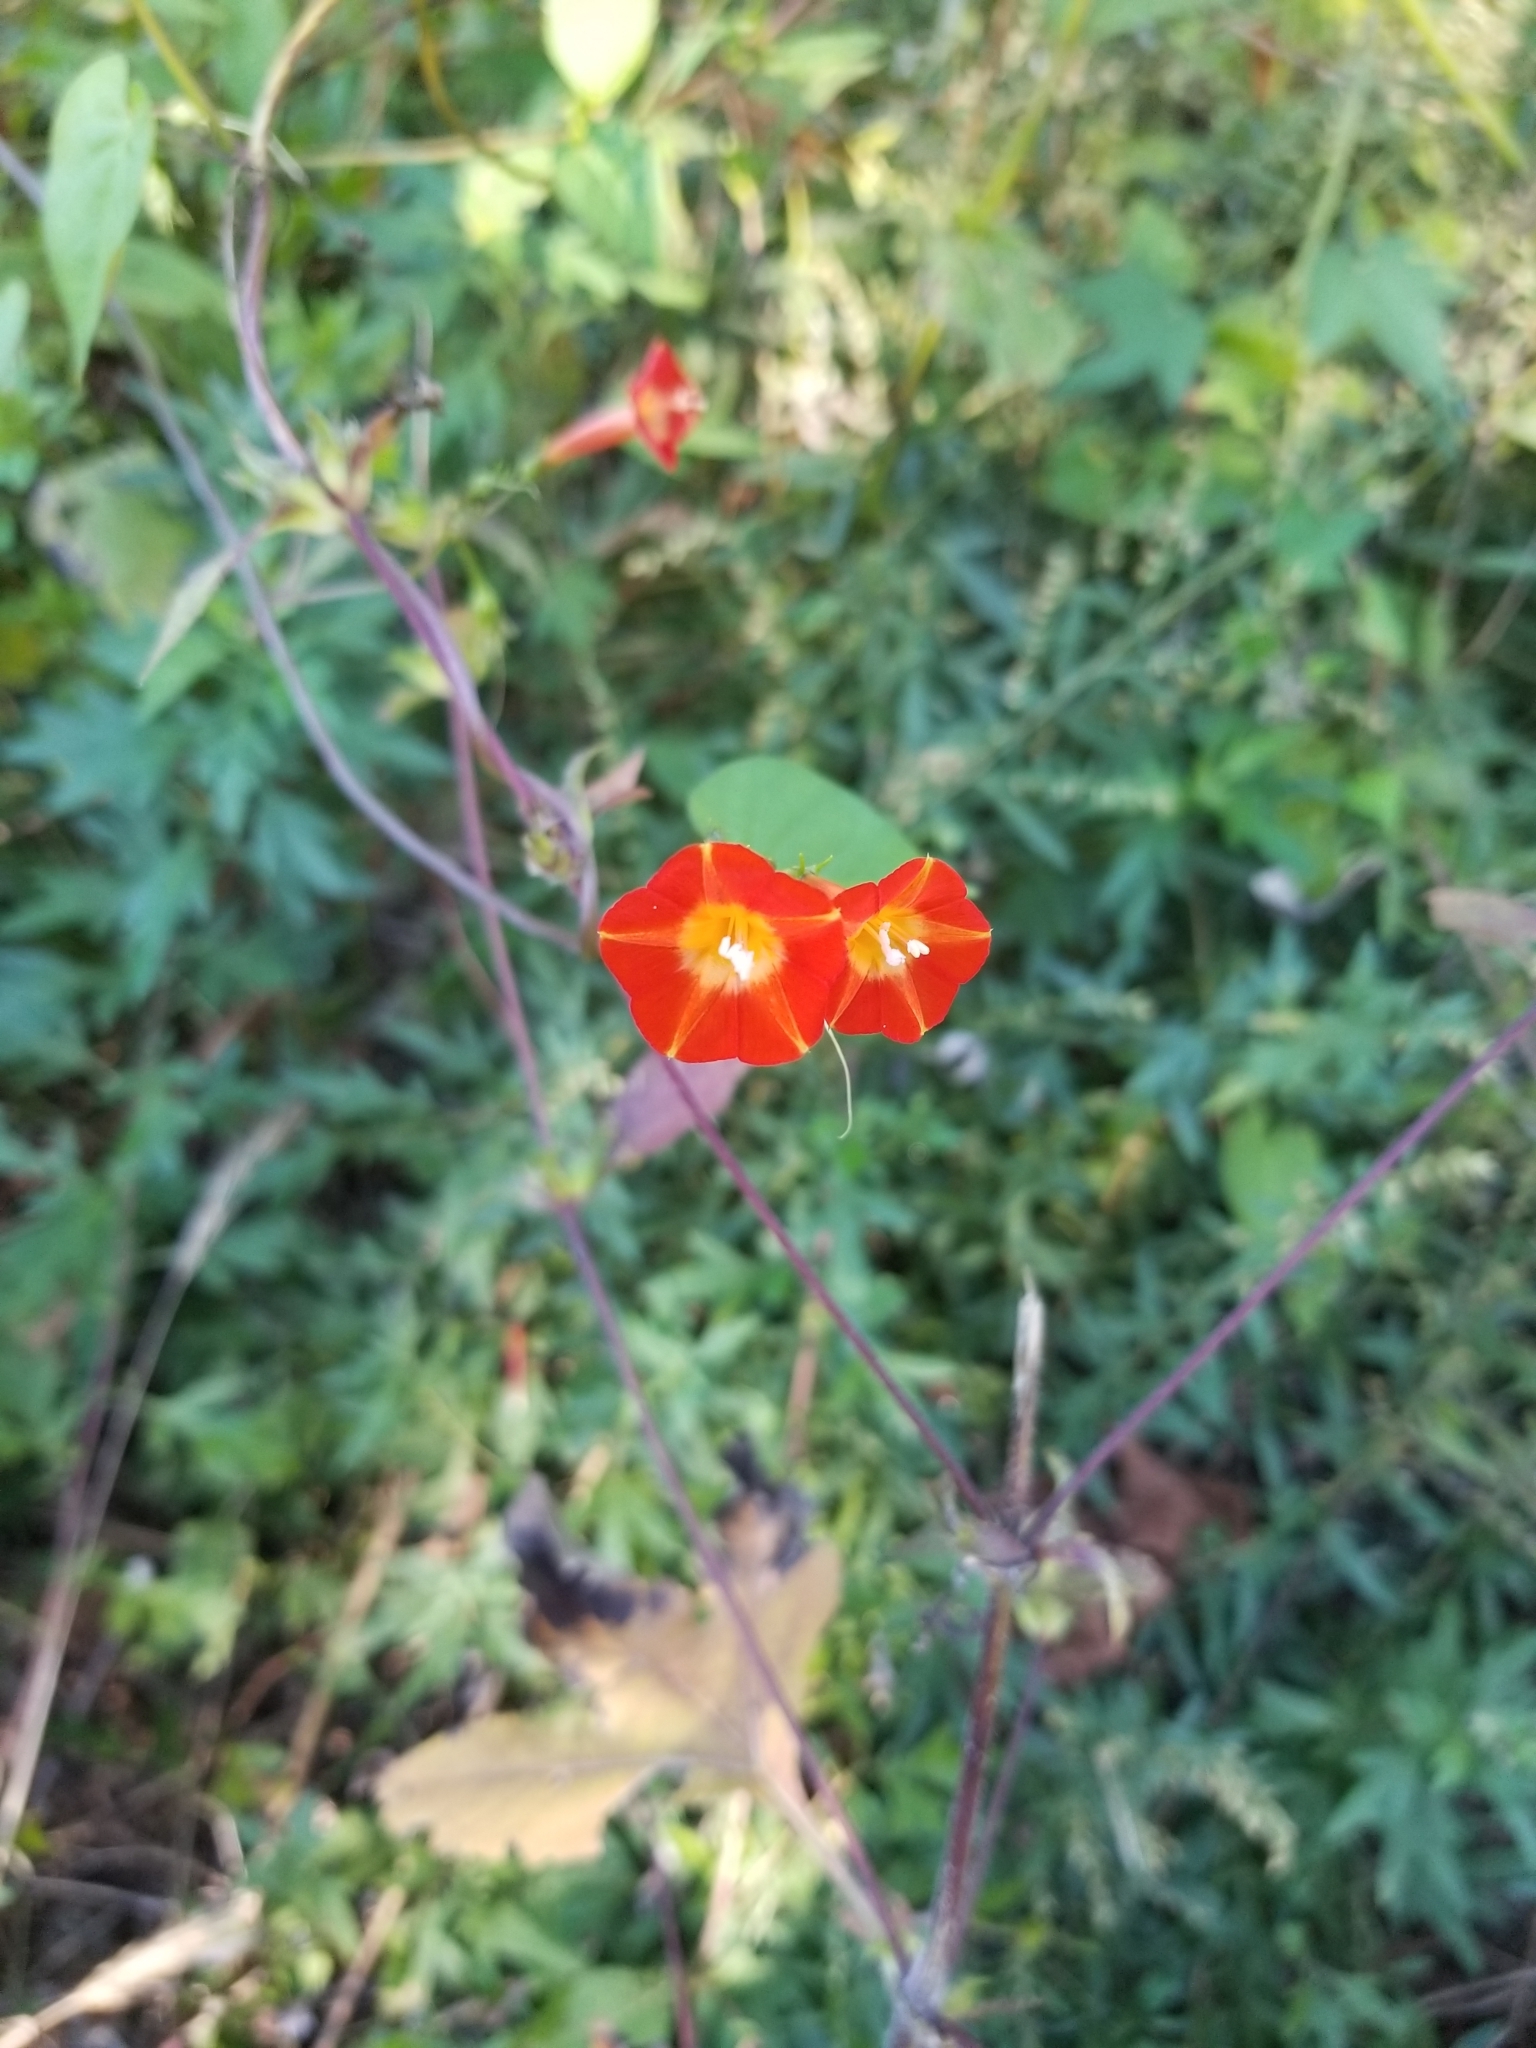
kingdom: Plantae
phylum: Tracheophyta
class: Magnoliopsida
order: Solanales
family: Convolvulaceae
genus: Ipomoea
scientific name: Ipomoea coccinea
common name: Red morning-glory
